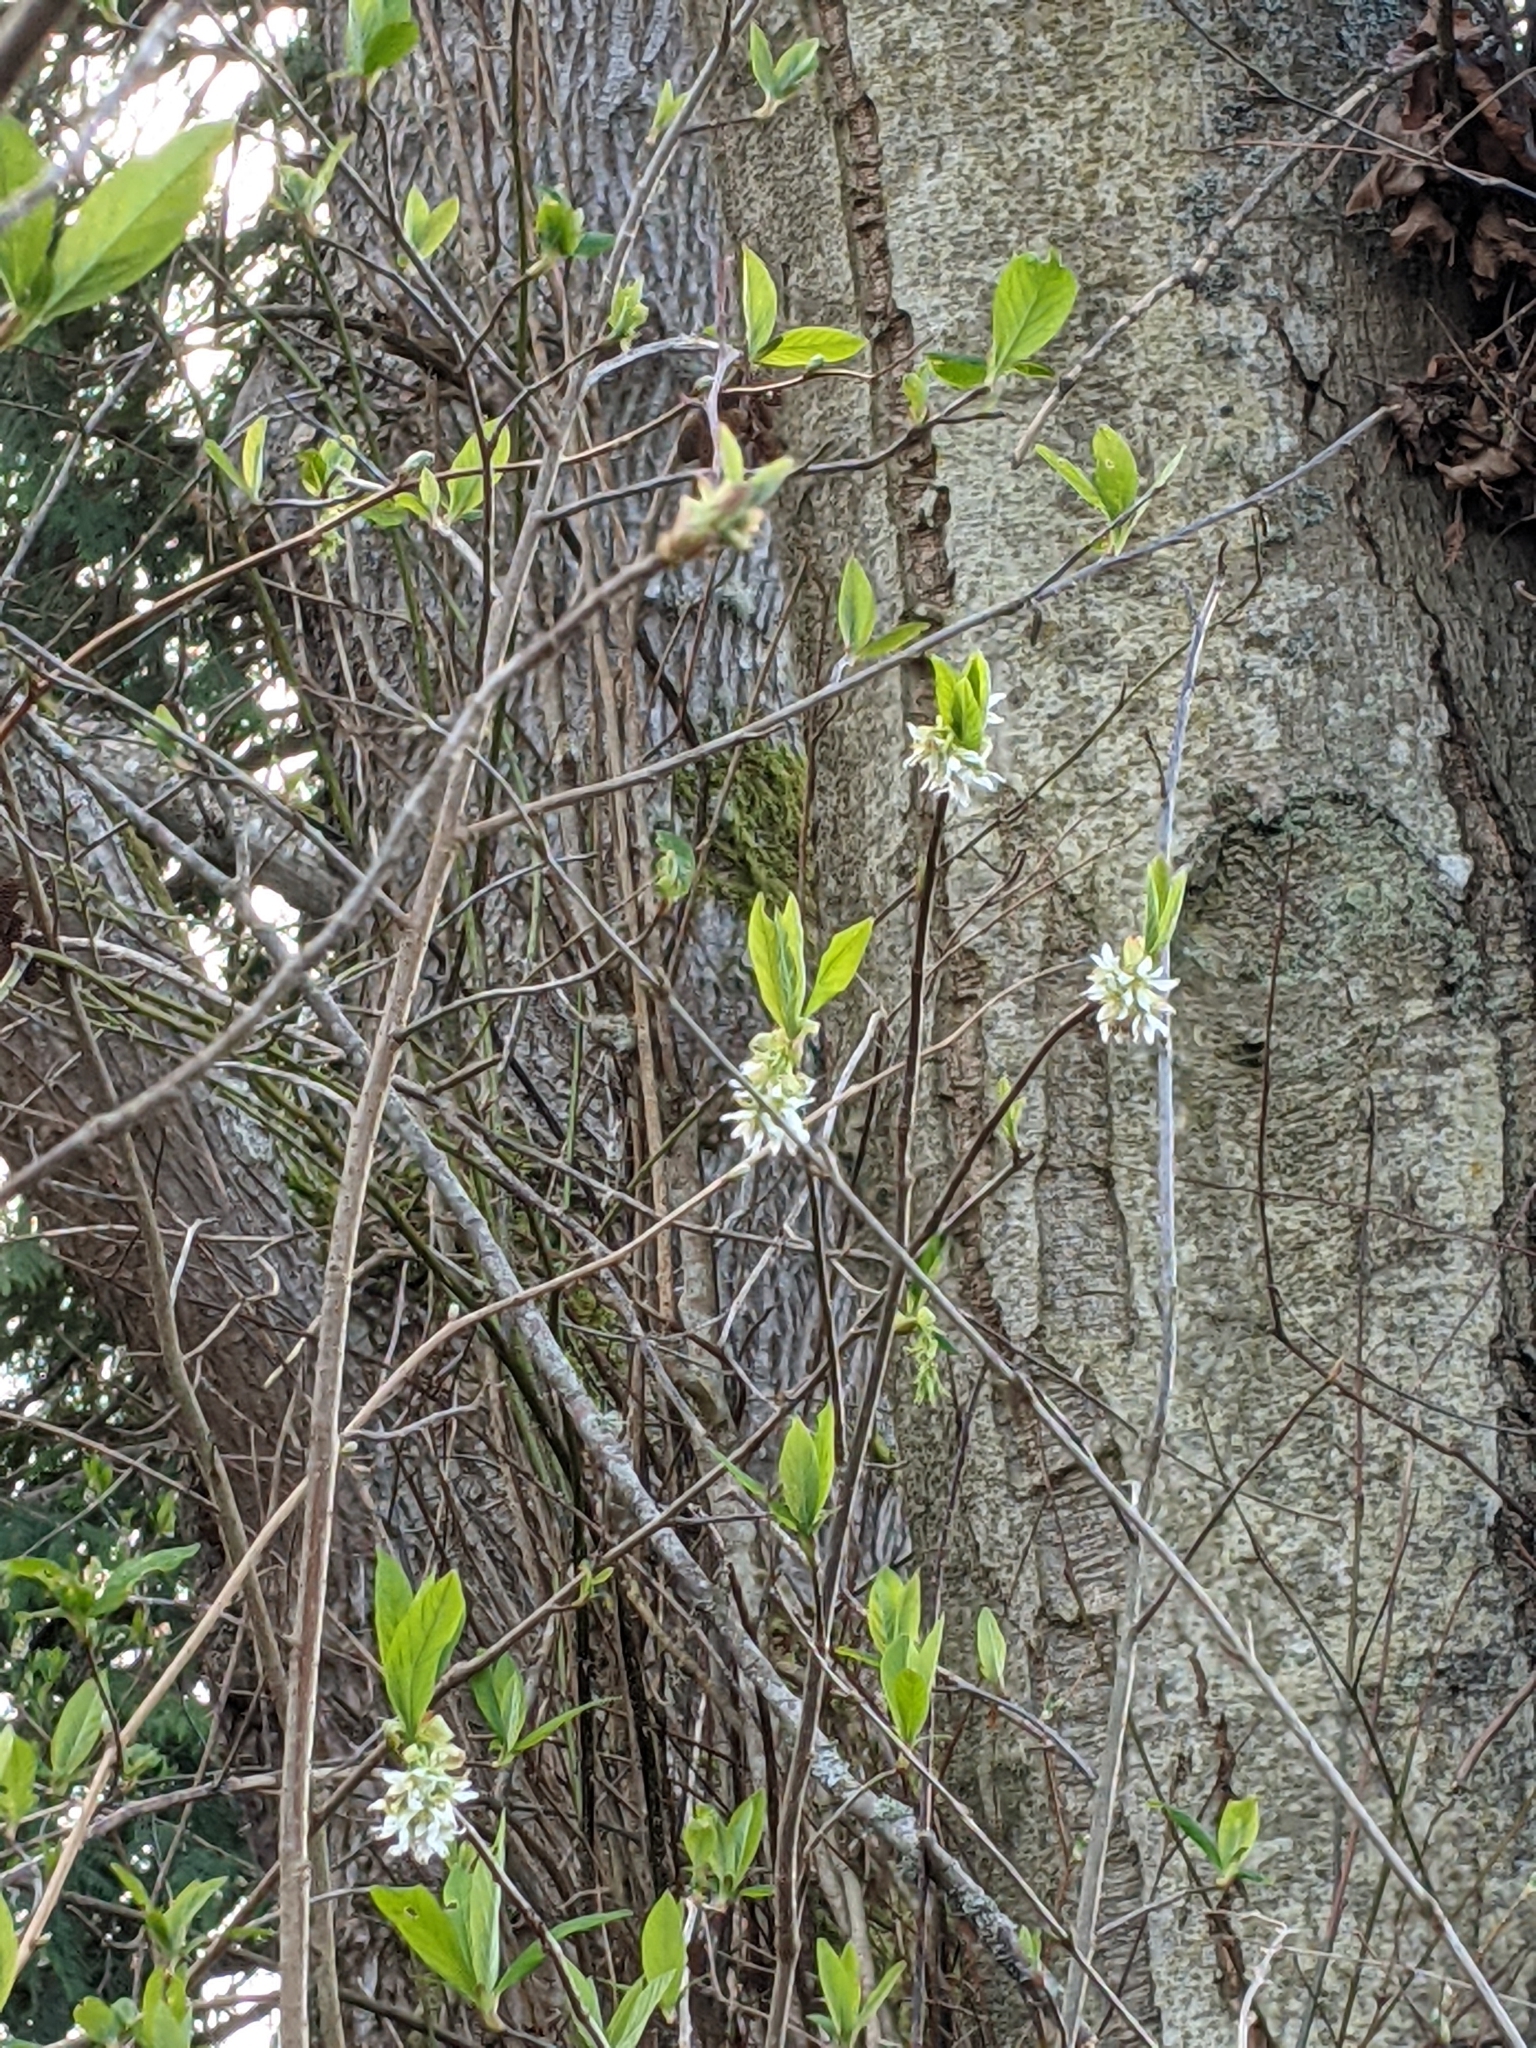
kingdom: Plantae
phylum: Tracheophyta
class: Magnoliopsida
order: Rosales
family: Rosaceae
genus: Oemleria
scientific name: Oemleria cerasiformis
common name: Osoberry
